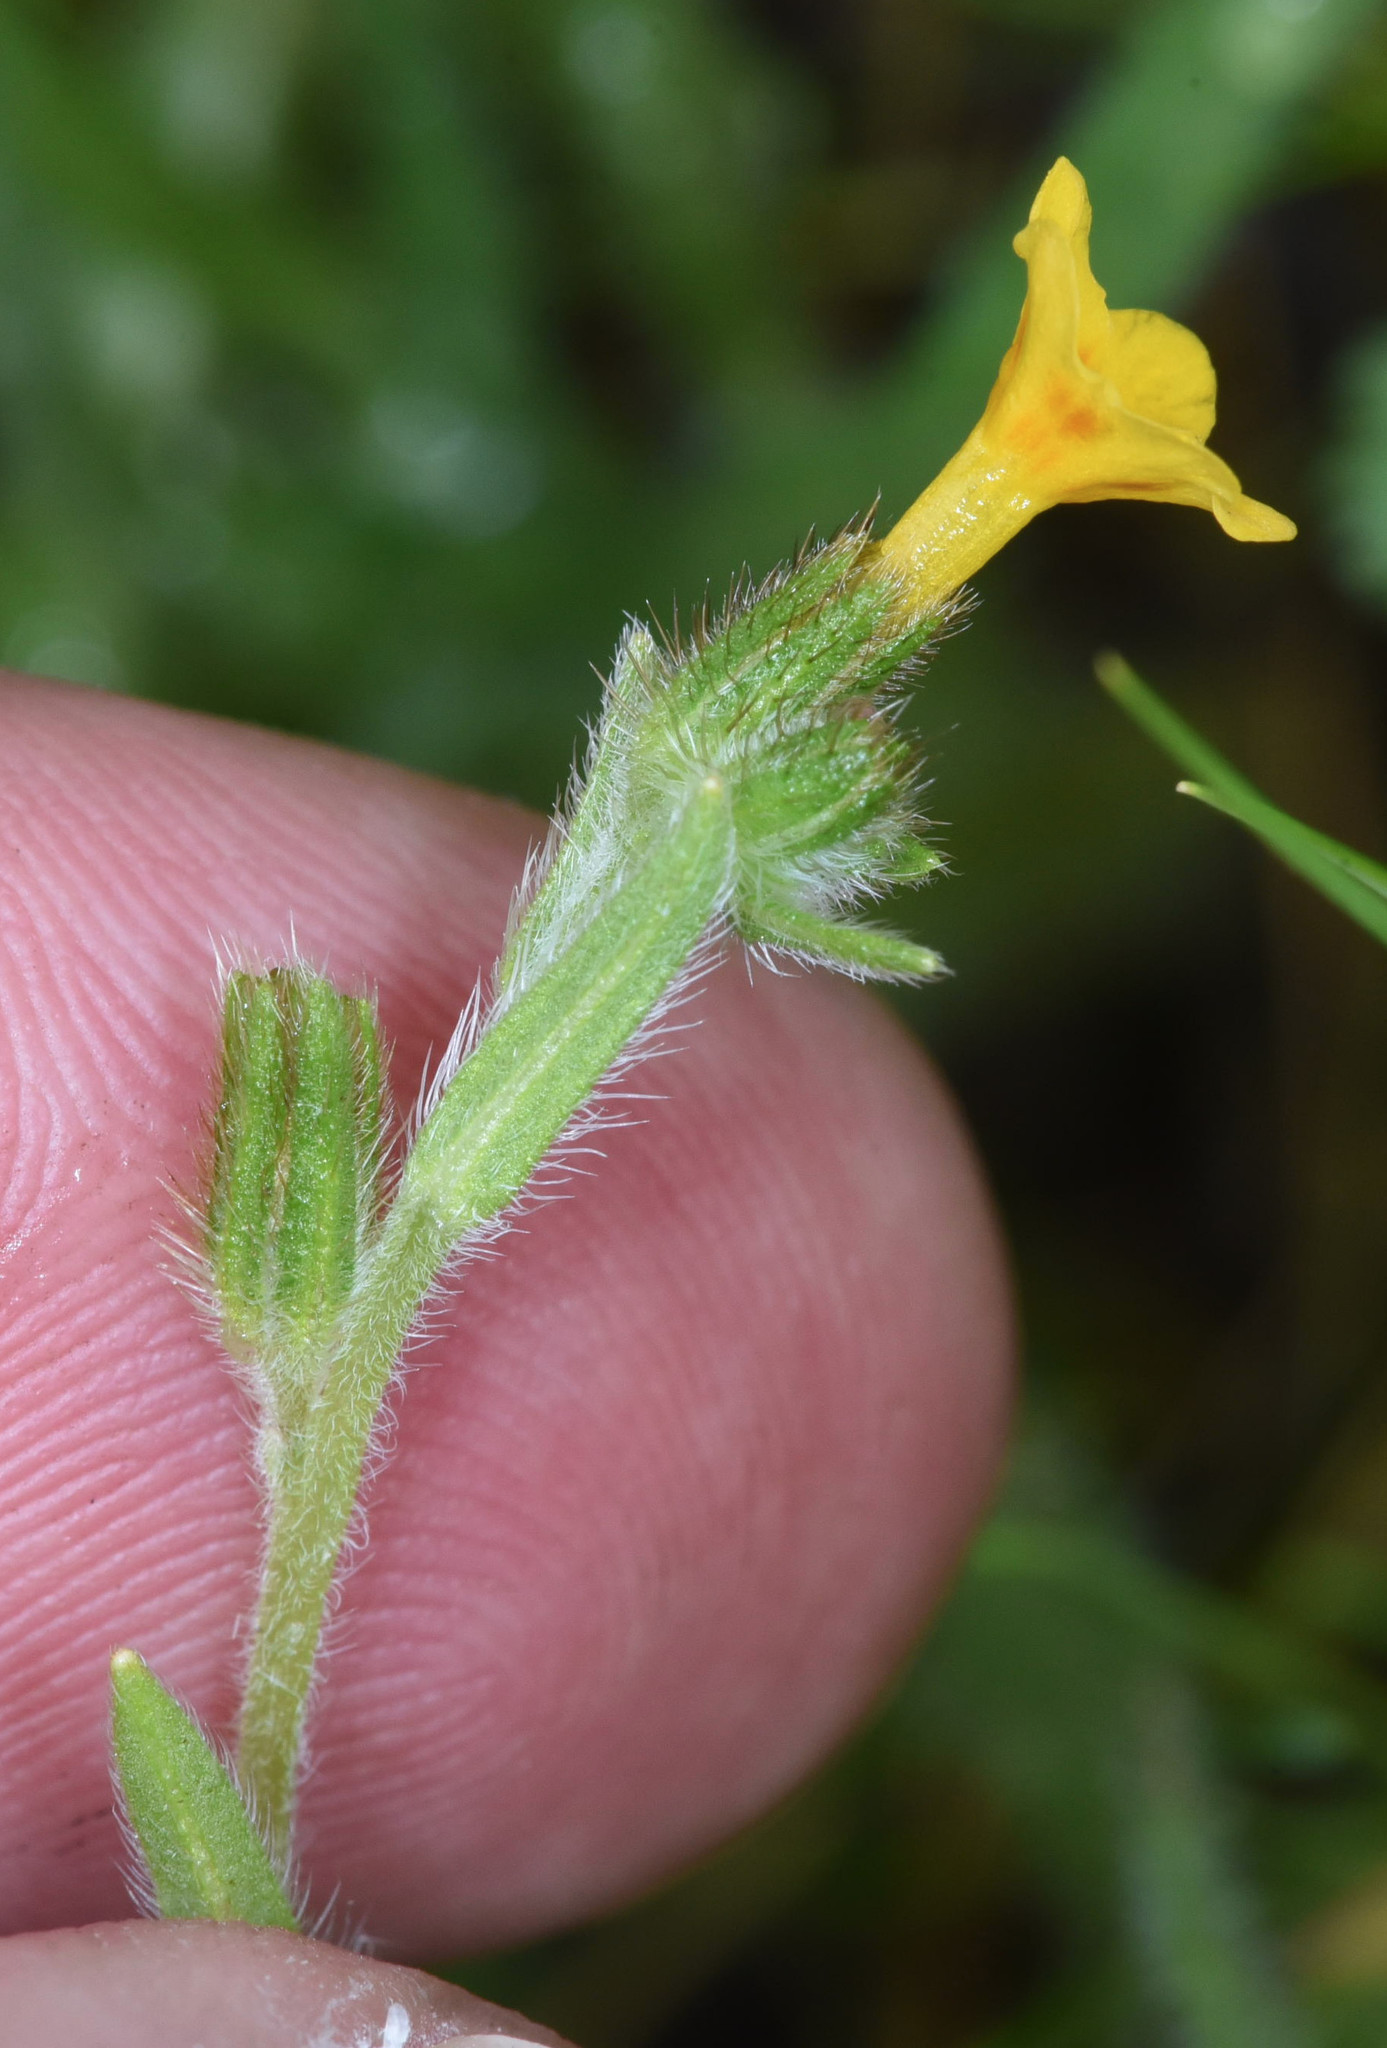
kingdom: Plantae
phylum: Tracheophyta
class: Magnoliopsida
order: Boraginales
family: Boraginaceae
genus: Amsinckia
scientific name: Amsinckia menziesii
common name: Menzies' fiddleneck
